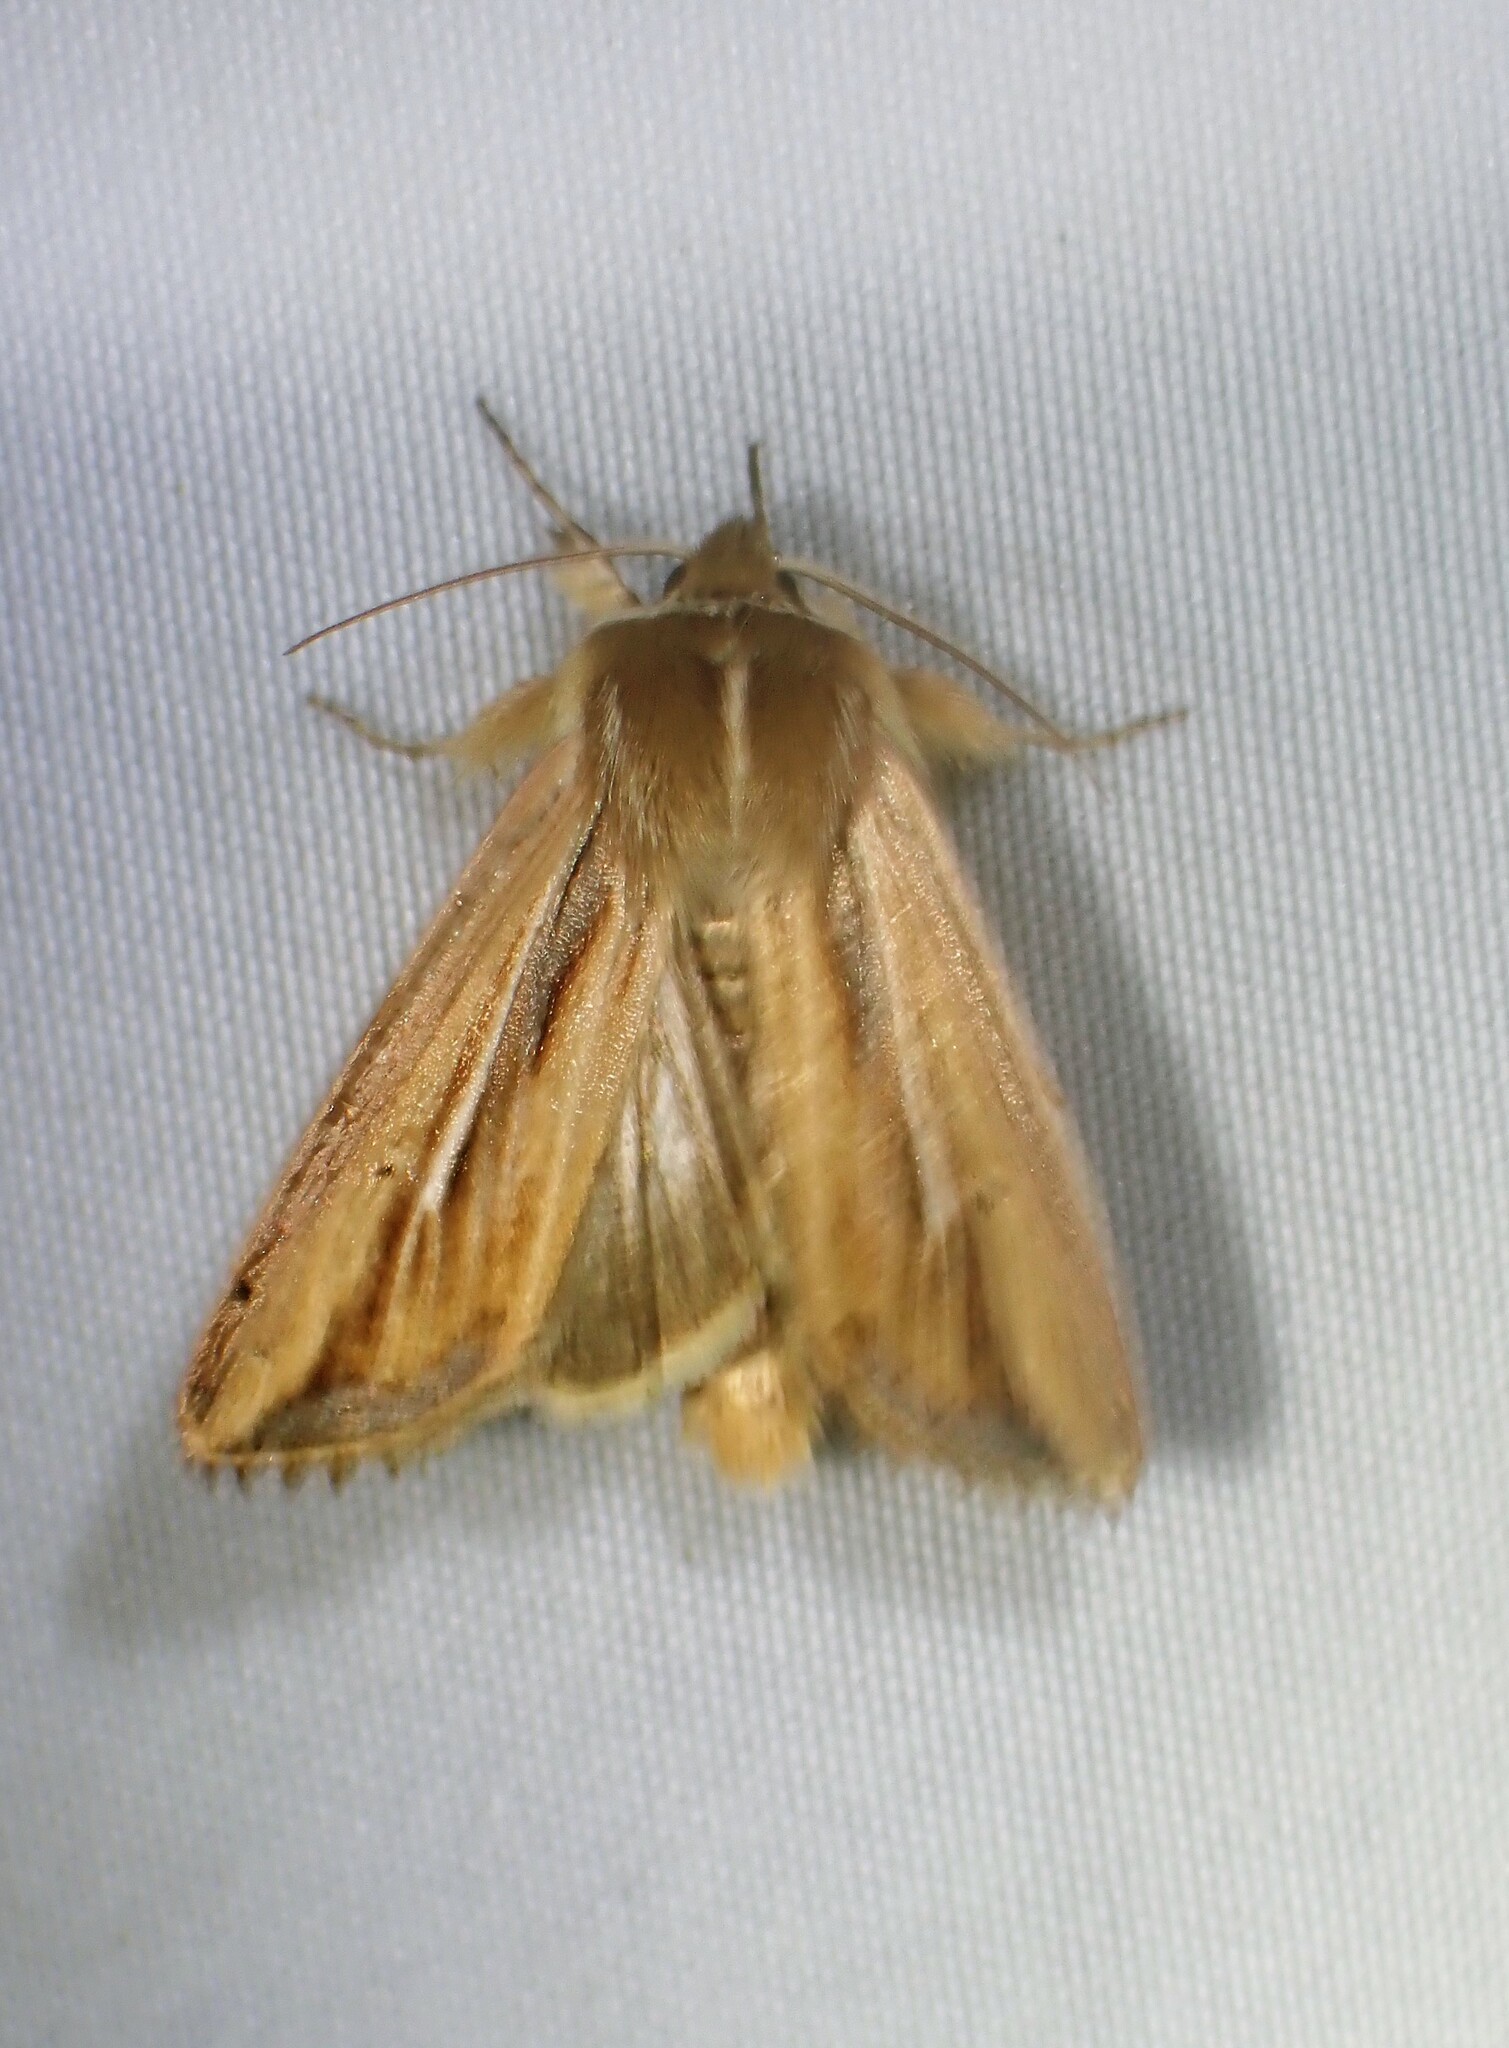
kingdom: Animalia
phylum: Arthropoda
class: Insecta
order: Lepidoptera
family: Noctuidae
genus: Dargida
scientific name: Dargida diffusa
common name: Wheat head armyworm
